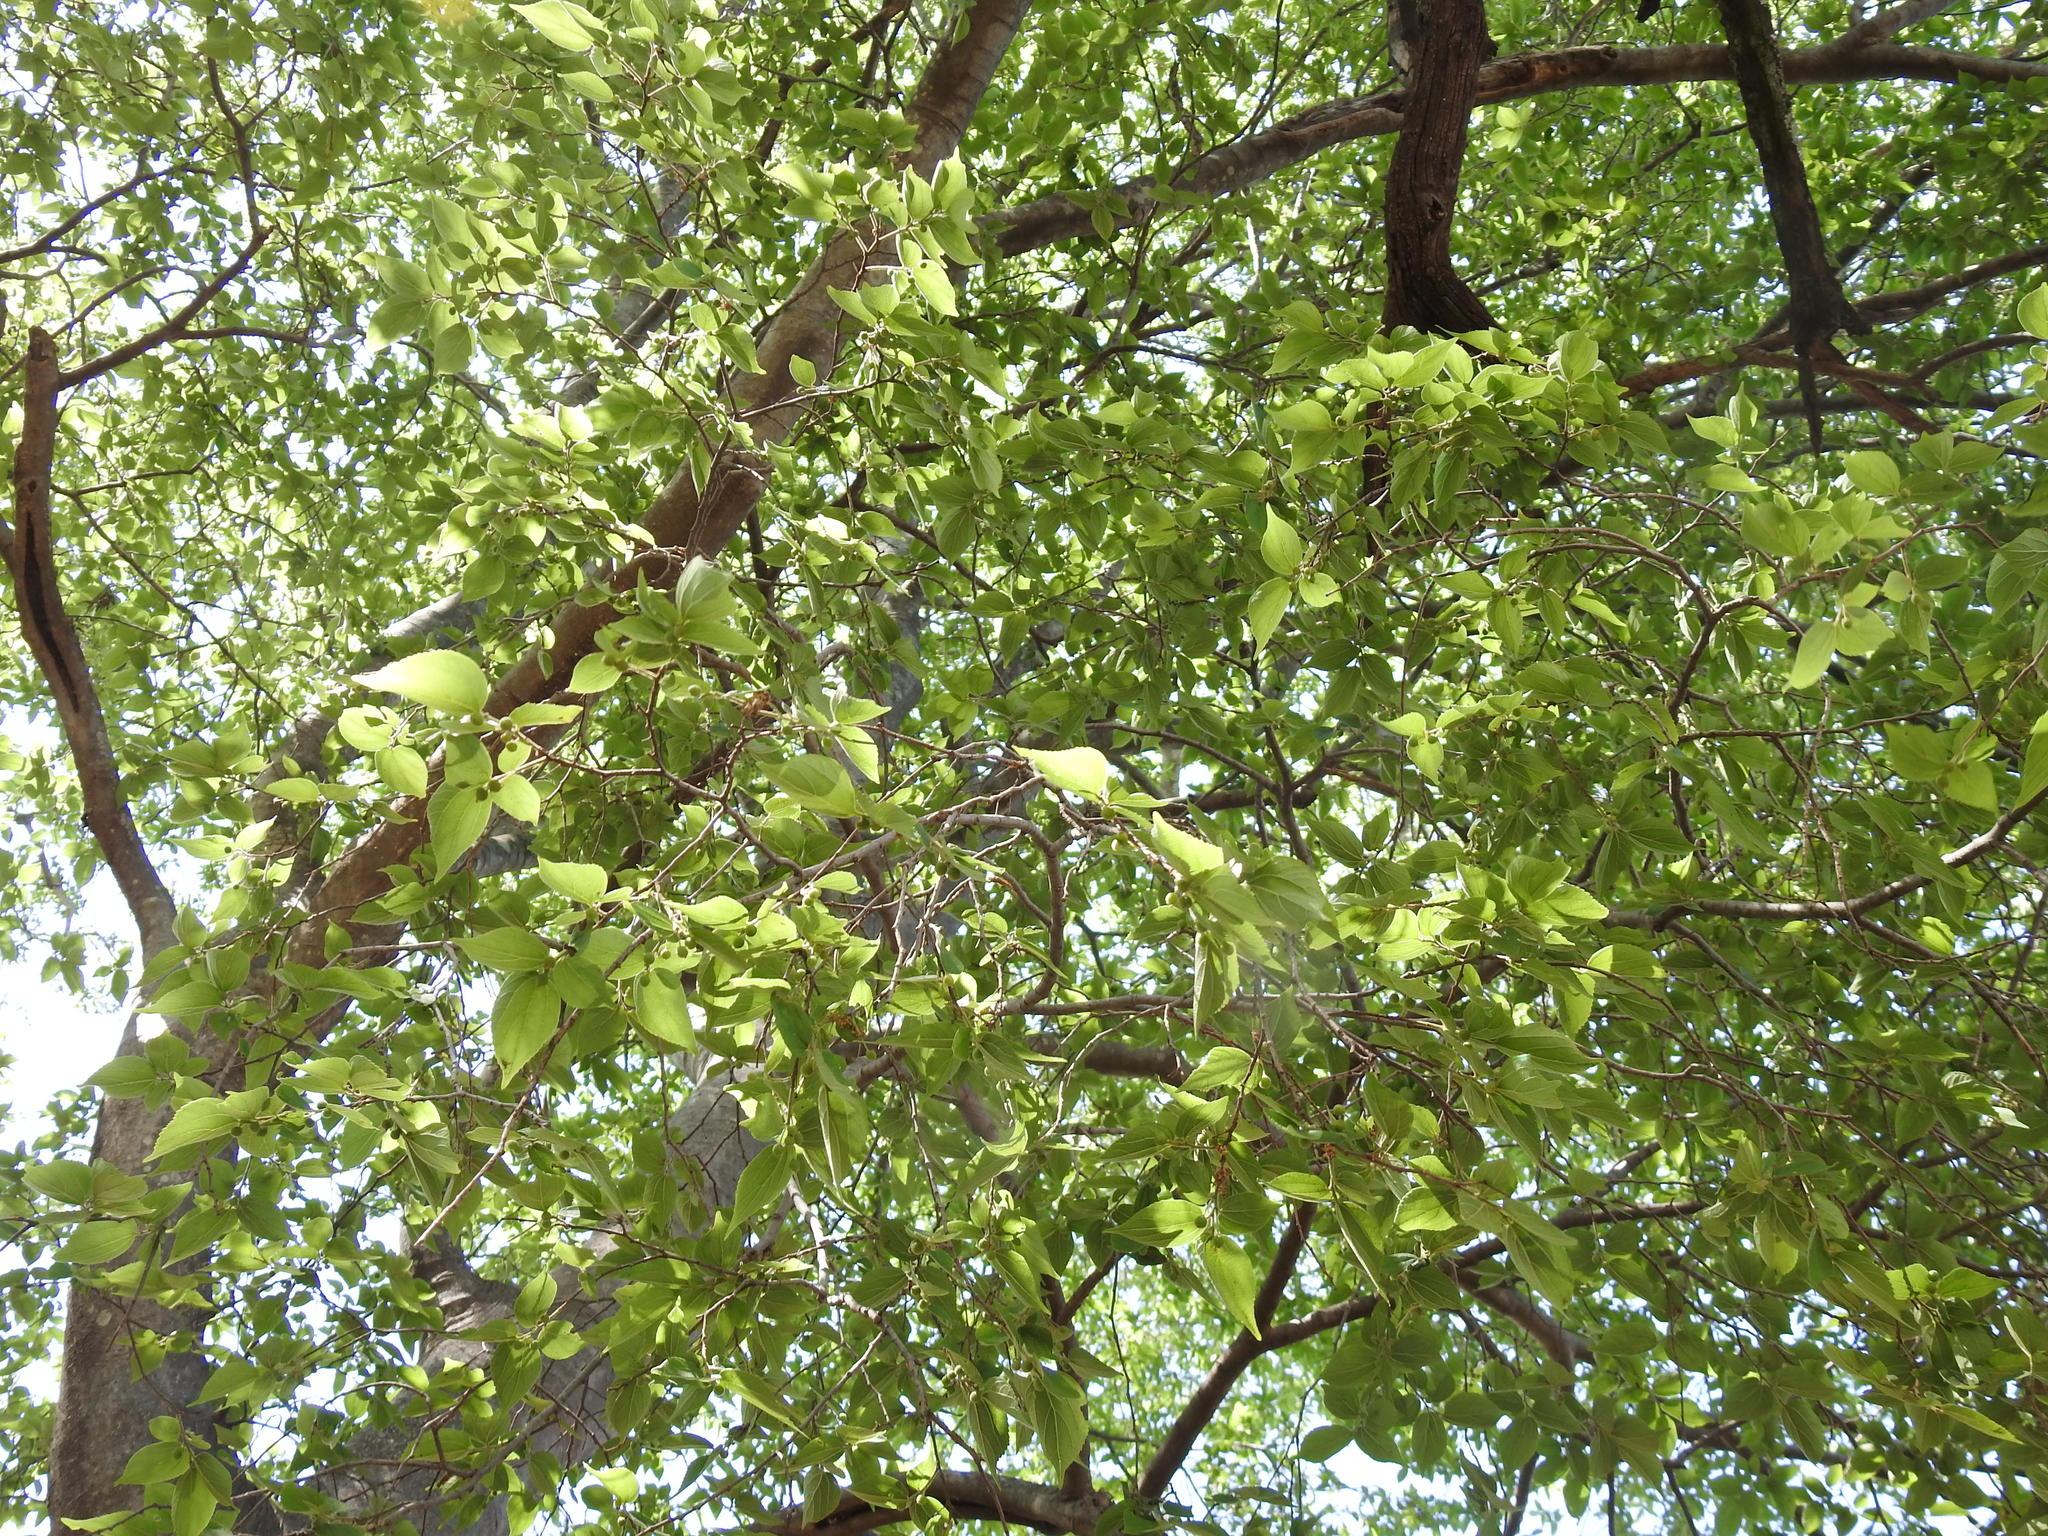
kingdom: Plantae
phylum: Tracheophyta
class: Magnoliopsida
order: Rosales
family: Cannabaceae
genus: Celtis
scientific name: Celtis africana
